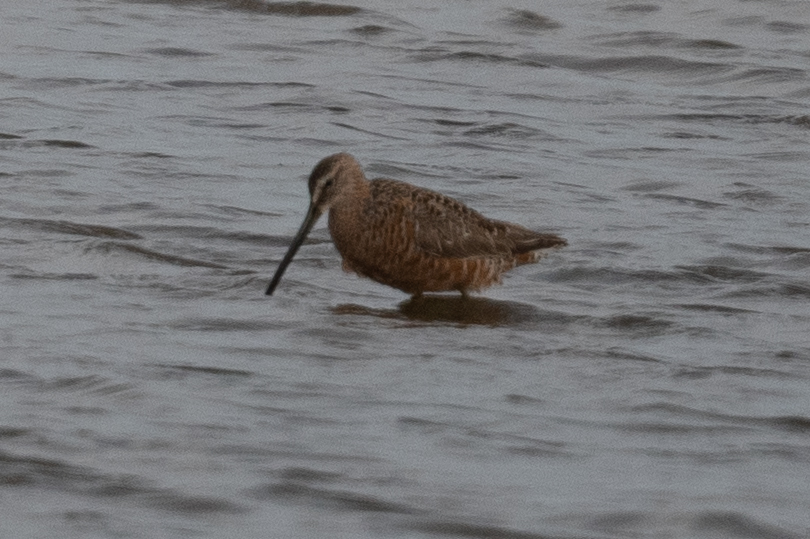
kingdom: Animalia
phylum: Chordata
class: Aves
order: Charadriiformes
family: Scolopacidae
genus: Limnodromus
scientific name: Limnodromus scolopaceus
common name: Long-billed dowitcher
